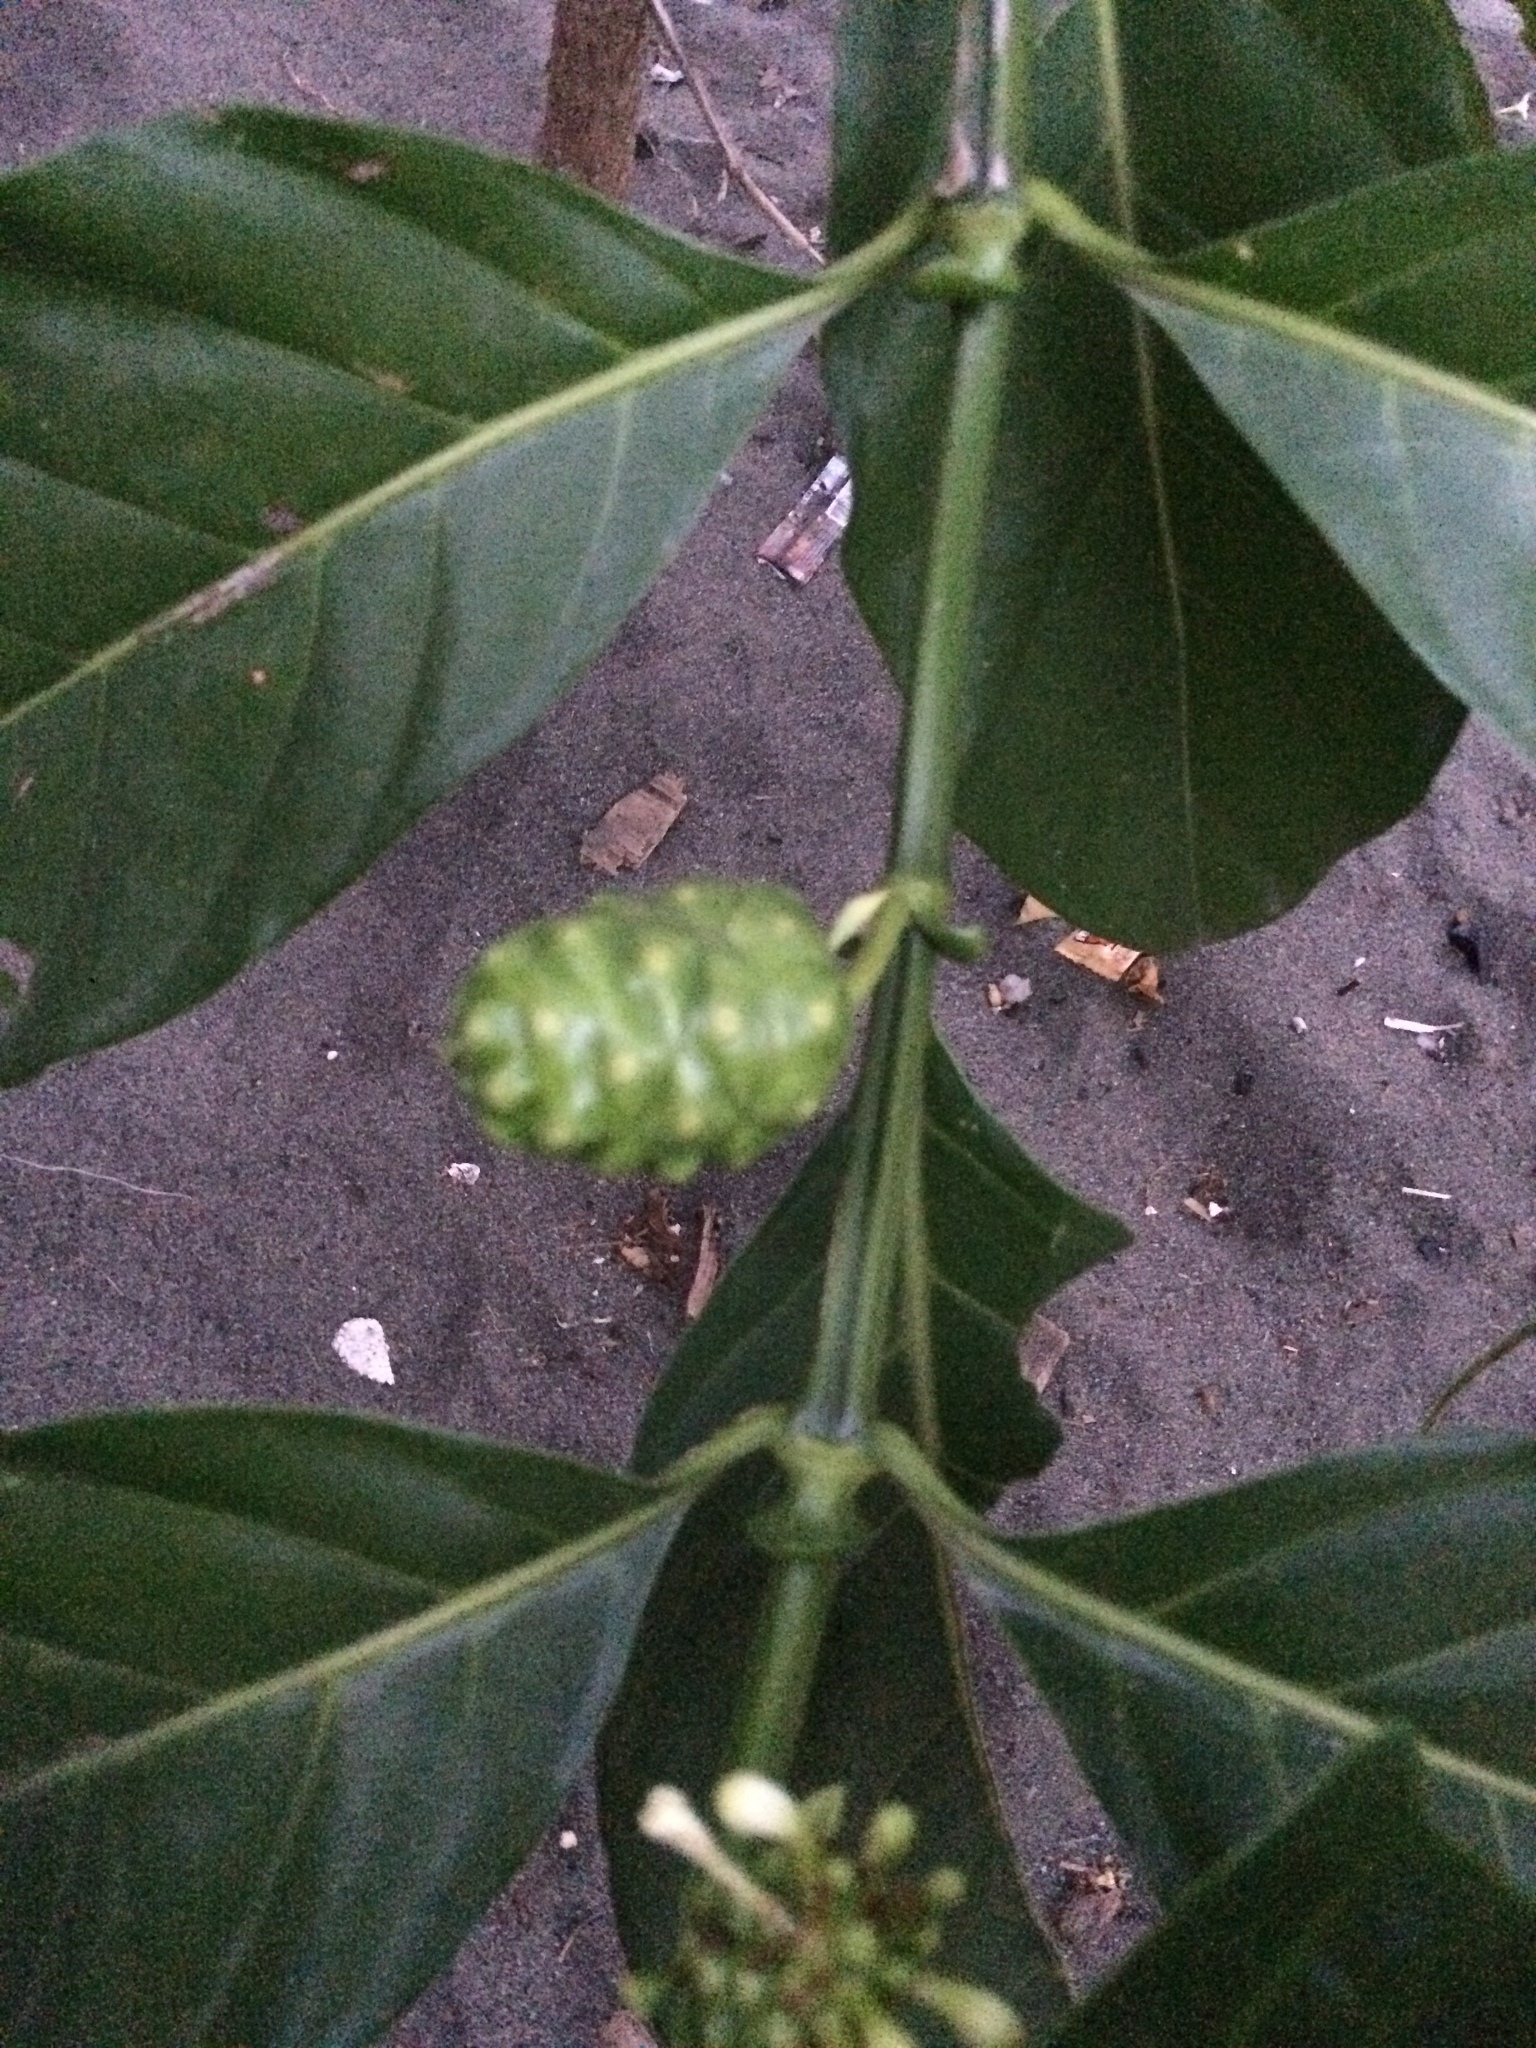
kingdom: Plantae
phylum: Tracheophyta
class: Magnoliopsida
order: Gentianales
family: Rubiaceae
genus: Morinda
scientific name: Morinda citrifolia
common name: Indian-mulberry
